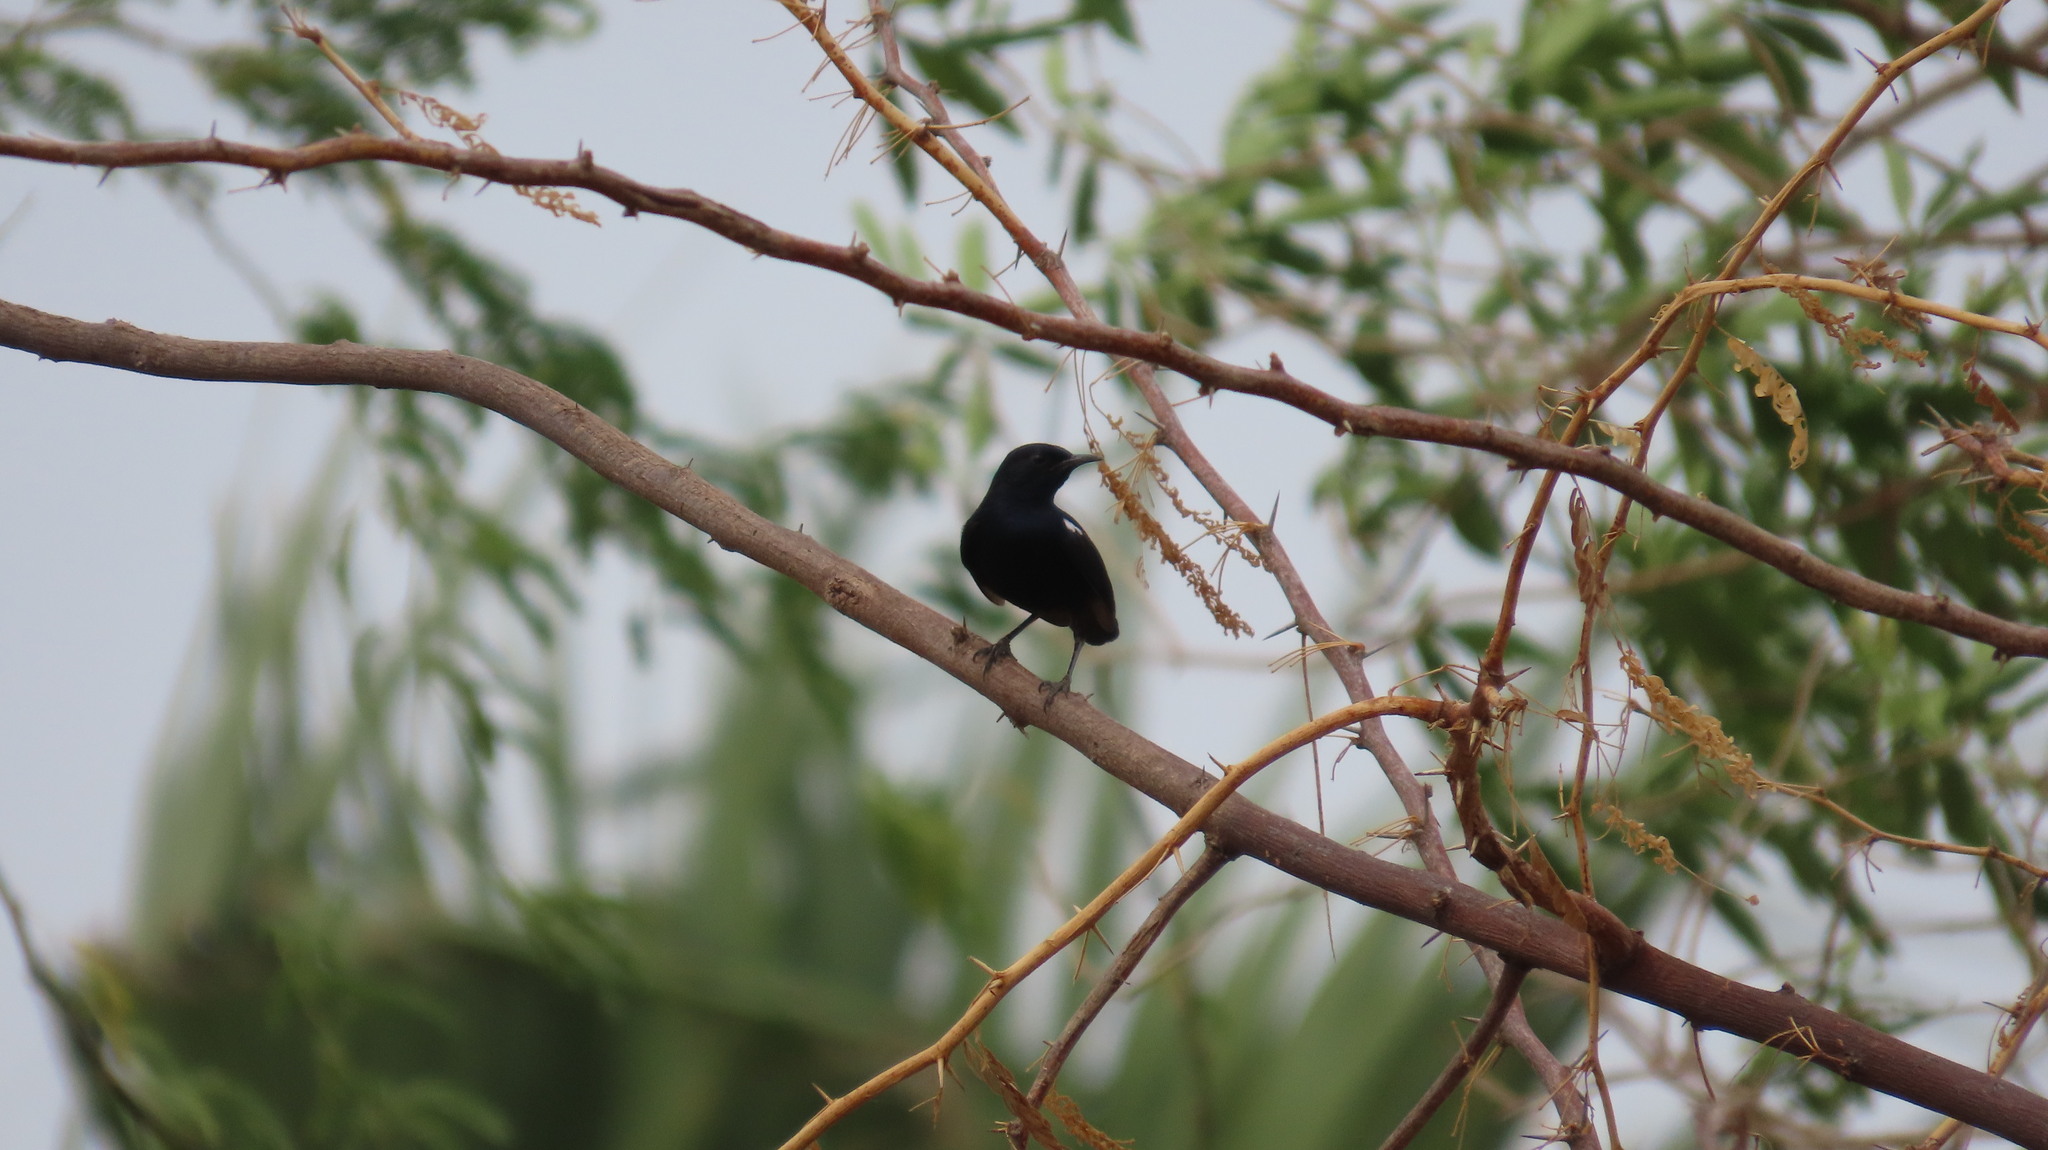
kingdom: Animalia
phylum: Chordata
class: Aves
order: Passeriformes
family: Muscicapidae
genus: Saxicoloides
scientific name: Saxicoloides fulicatus
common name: Indian robin
